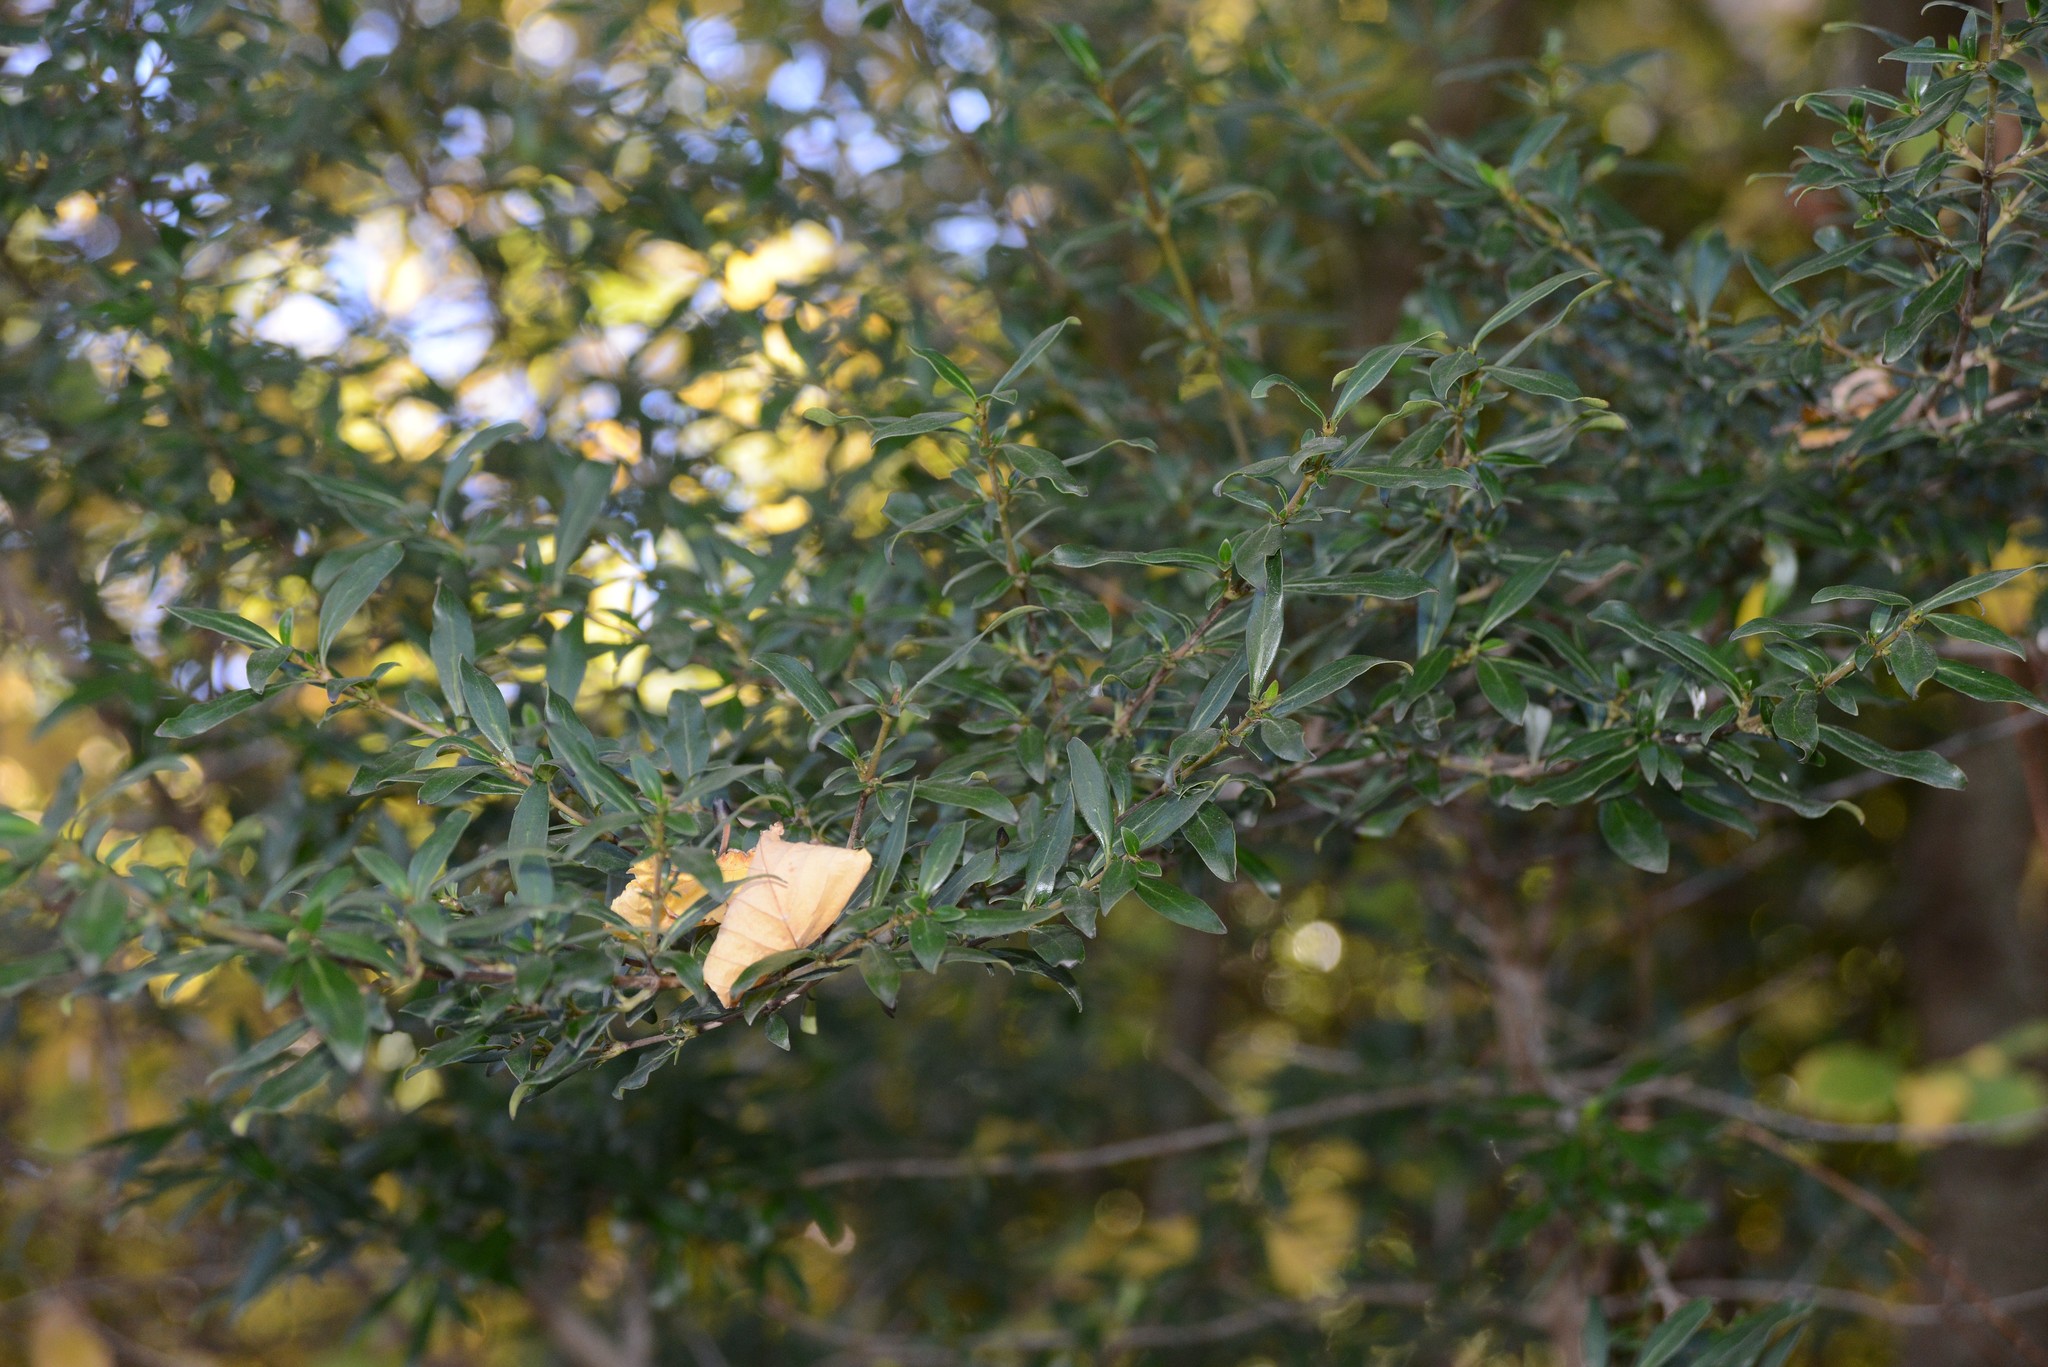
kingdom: Plantae
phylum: Tracheophyta
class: Magnoliopsida
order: Gentianales
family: Rubiaceae
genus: Coprosma
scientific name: Coprosma cunninghamii
